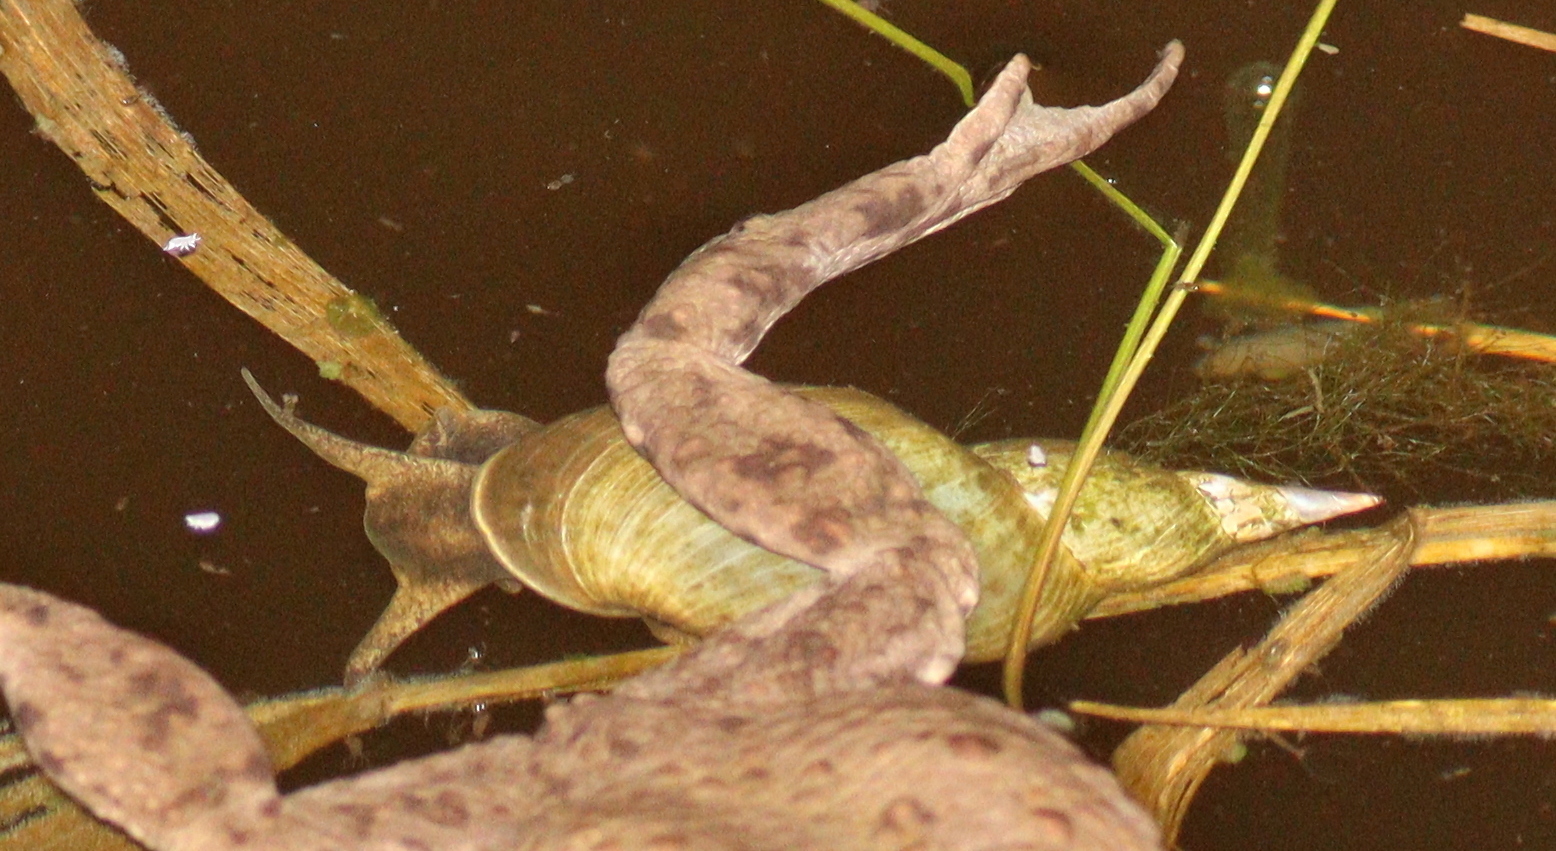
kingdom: Animalia
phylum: Mollusca
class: Gastropoda
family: Lymnaeidae
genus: Lymnaea
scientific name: Lymnaea stagnalis
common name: Great pond snail
